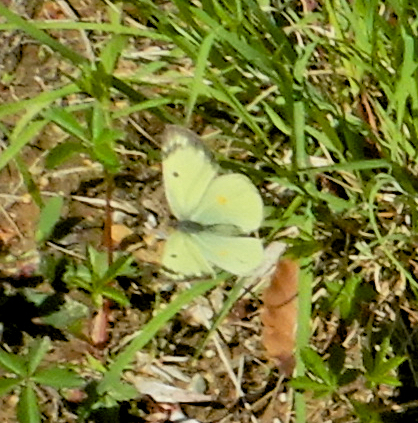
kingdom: Animalia
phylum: Arthropoda
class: Insecta
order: Lepidoptera
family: Pieridae
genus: Colias
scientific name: Colias philodice
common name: Clouded sulphur
